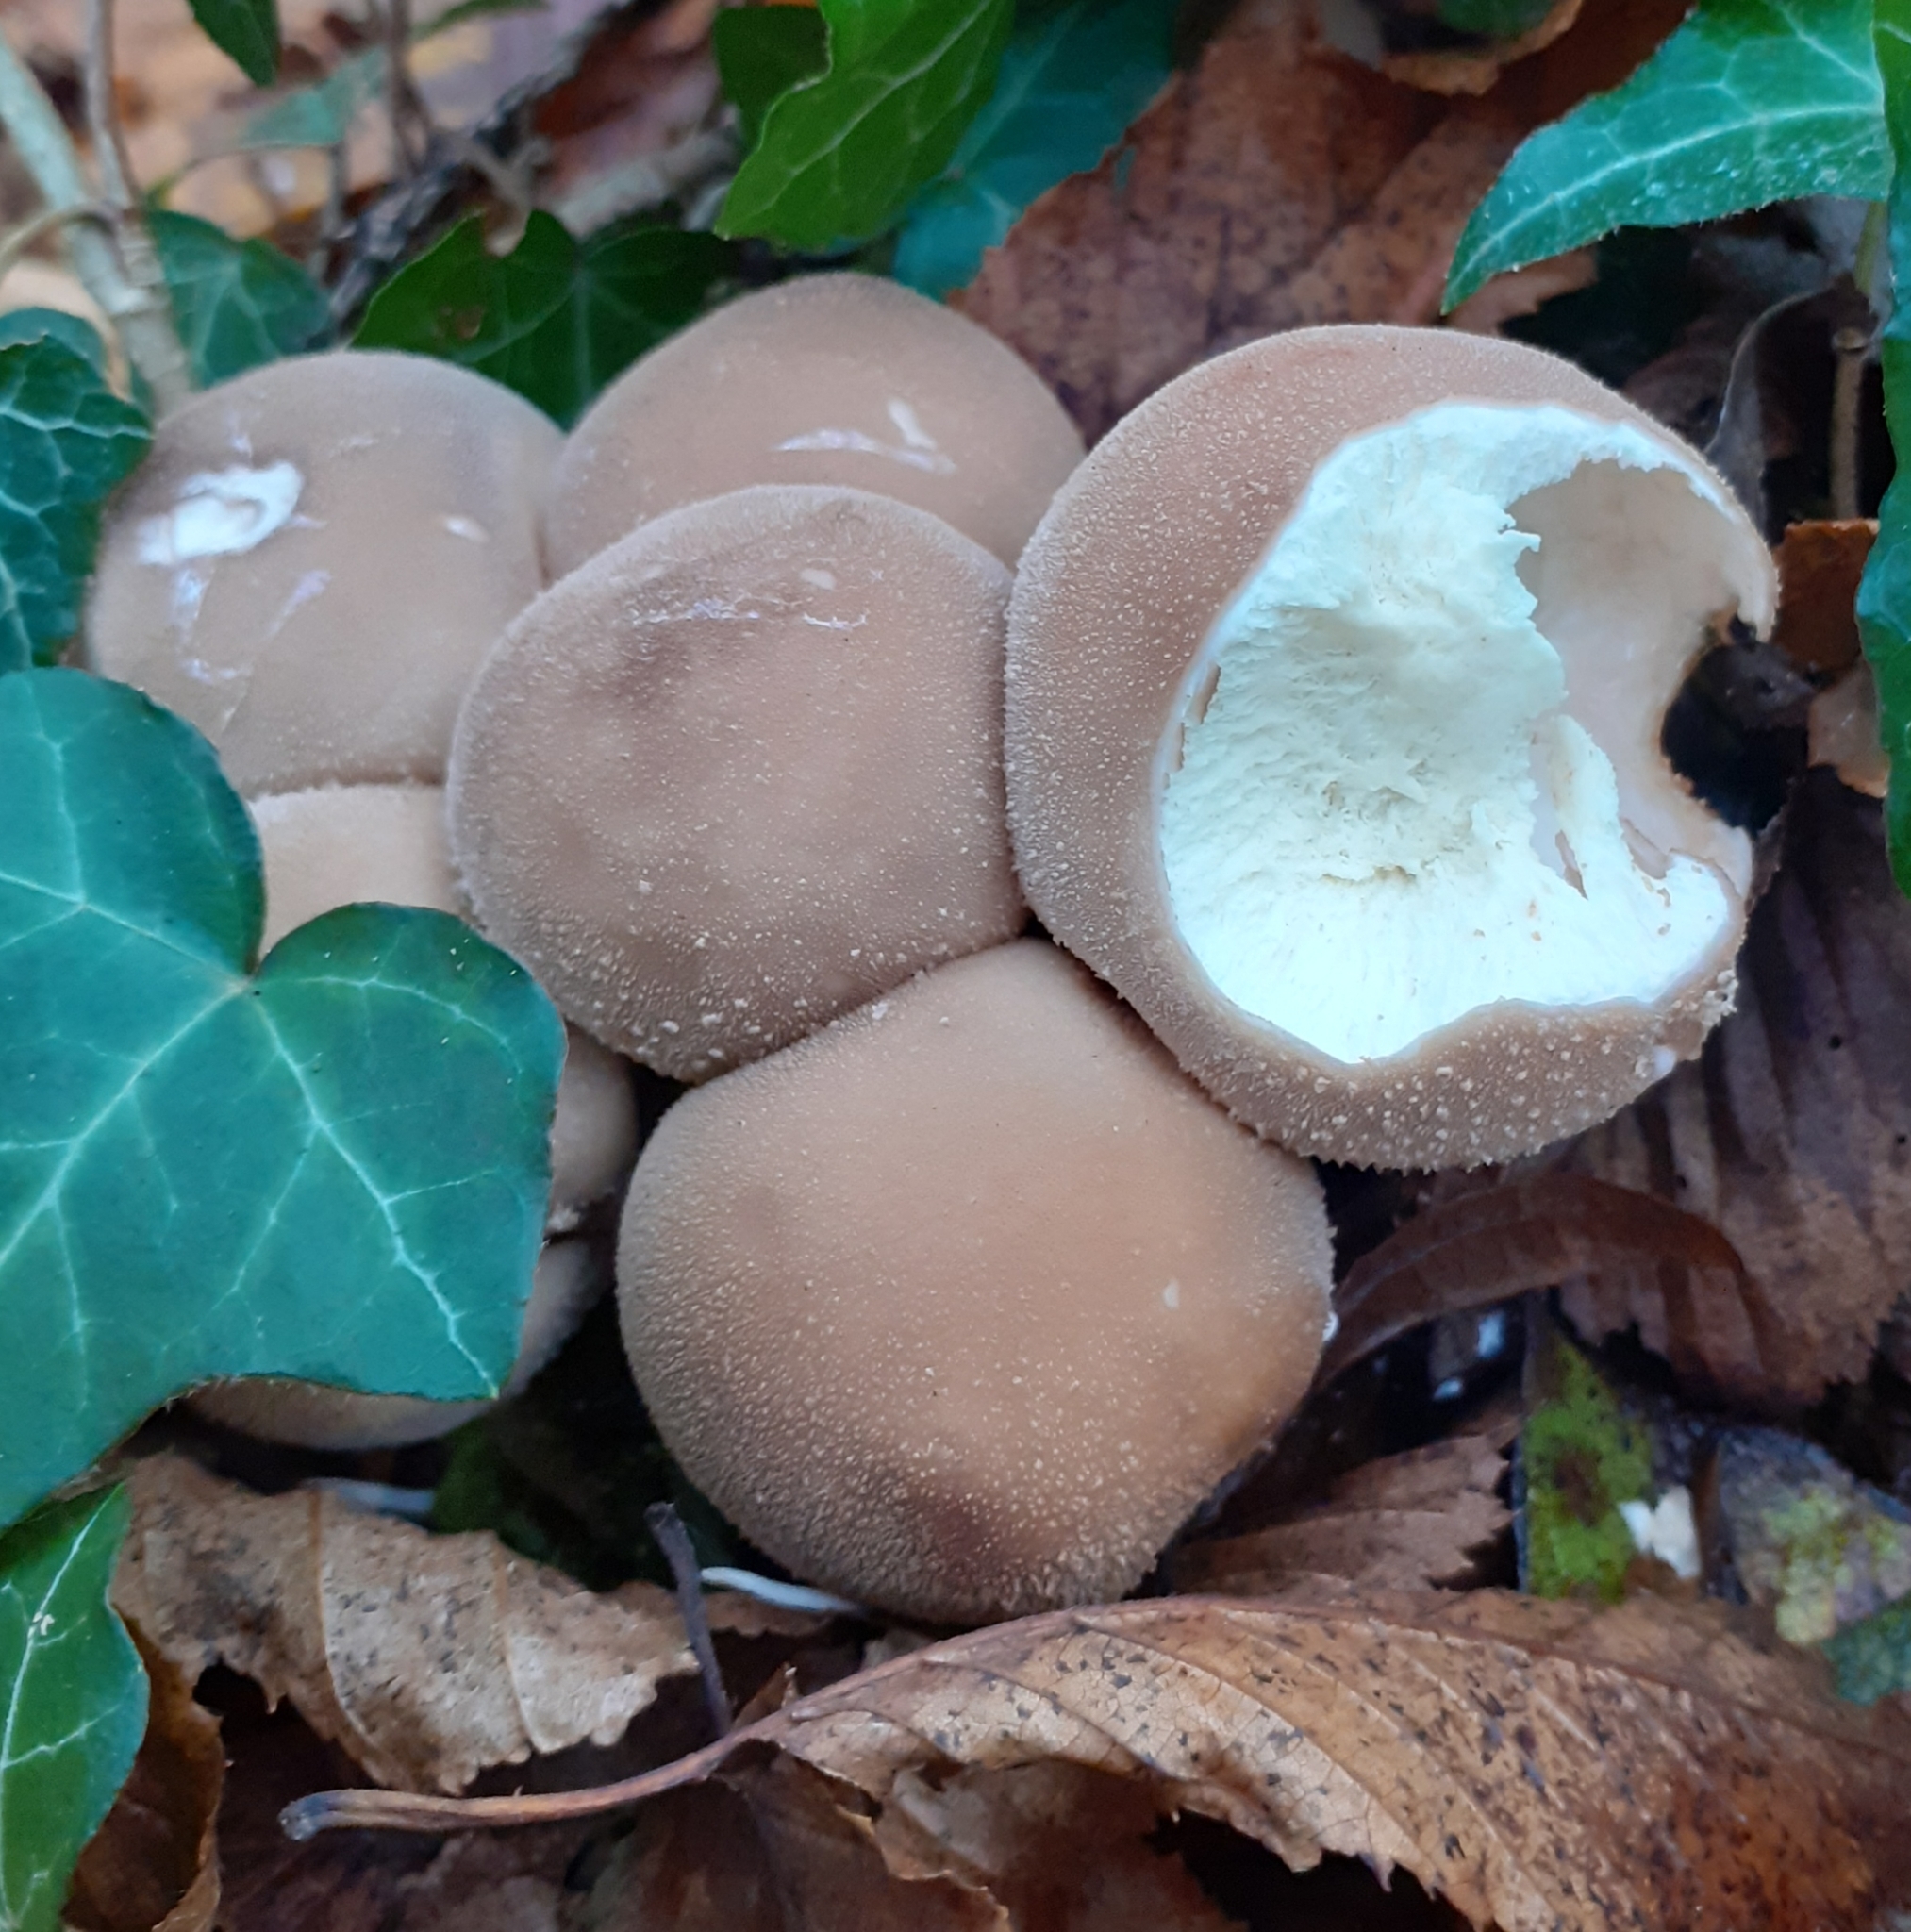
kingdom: Fungi
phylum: Basidiomycota
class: Agaricomycetes
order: Agaricales
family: Lycoperdaceae
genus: Apioperdon
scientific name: Apioperdon pyriforme
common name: Pear-shaped puffball
